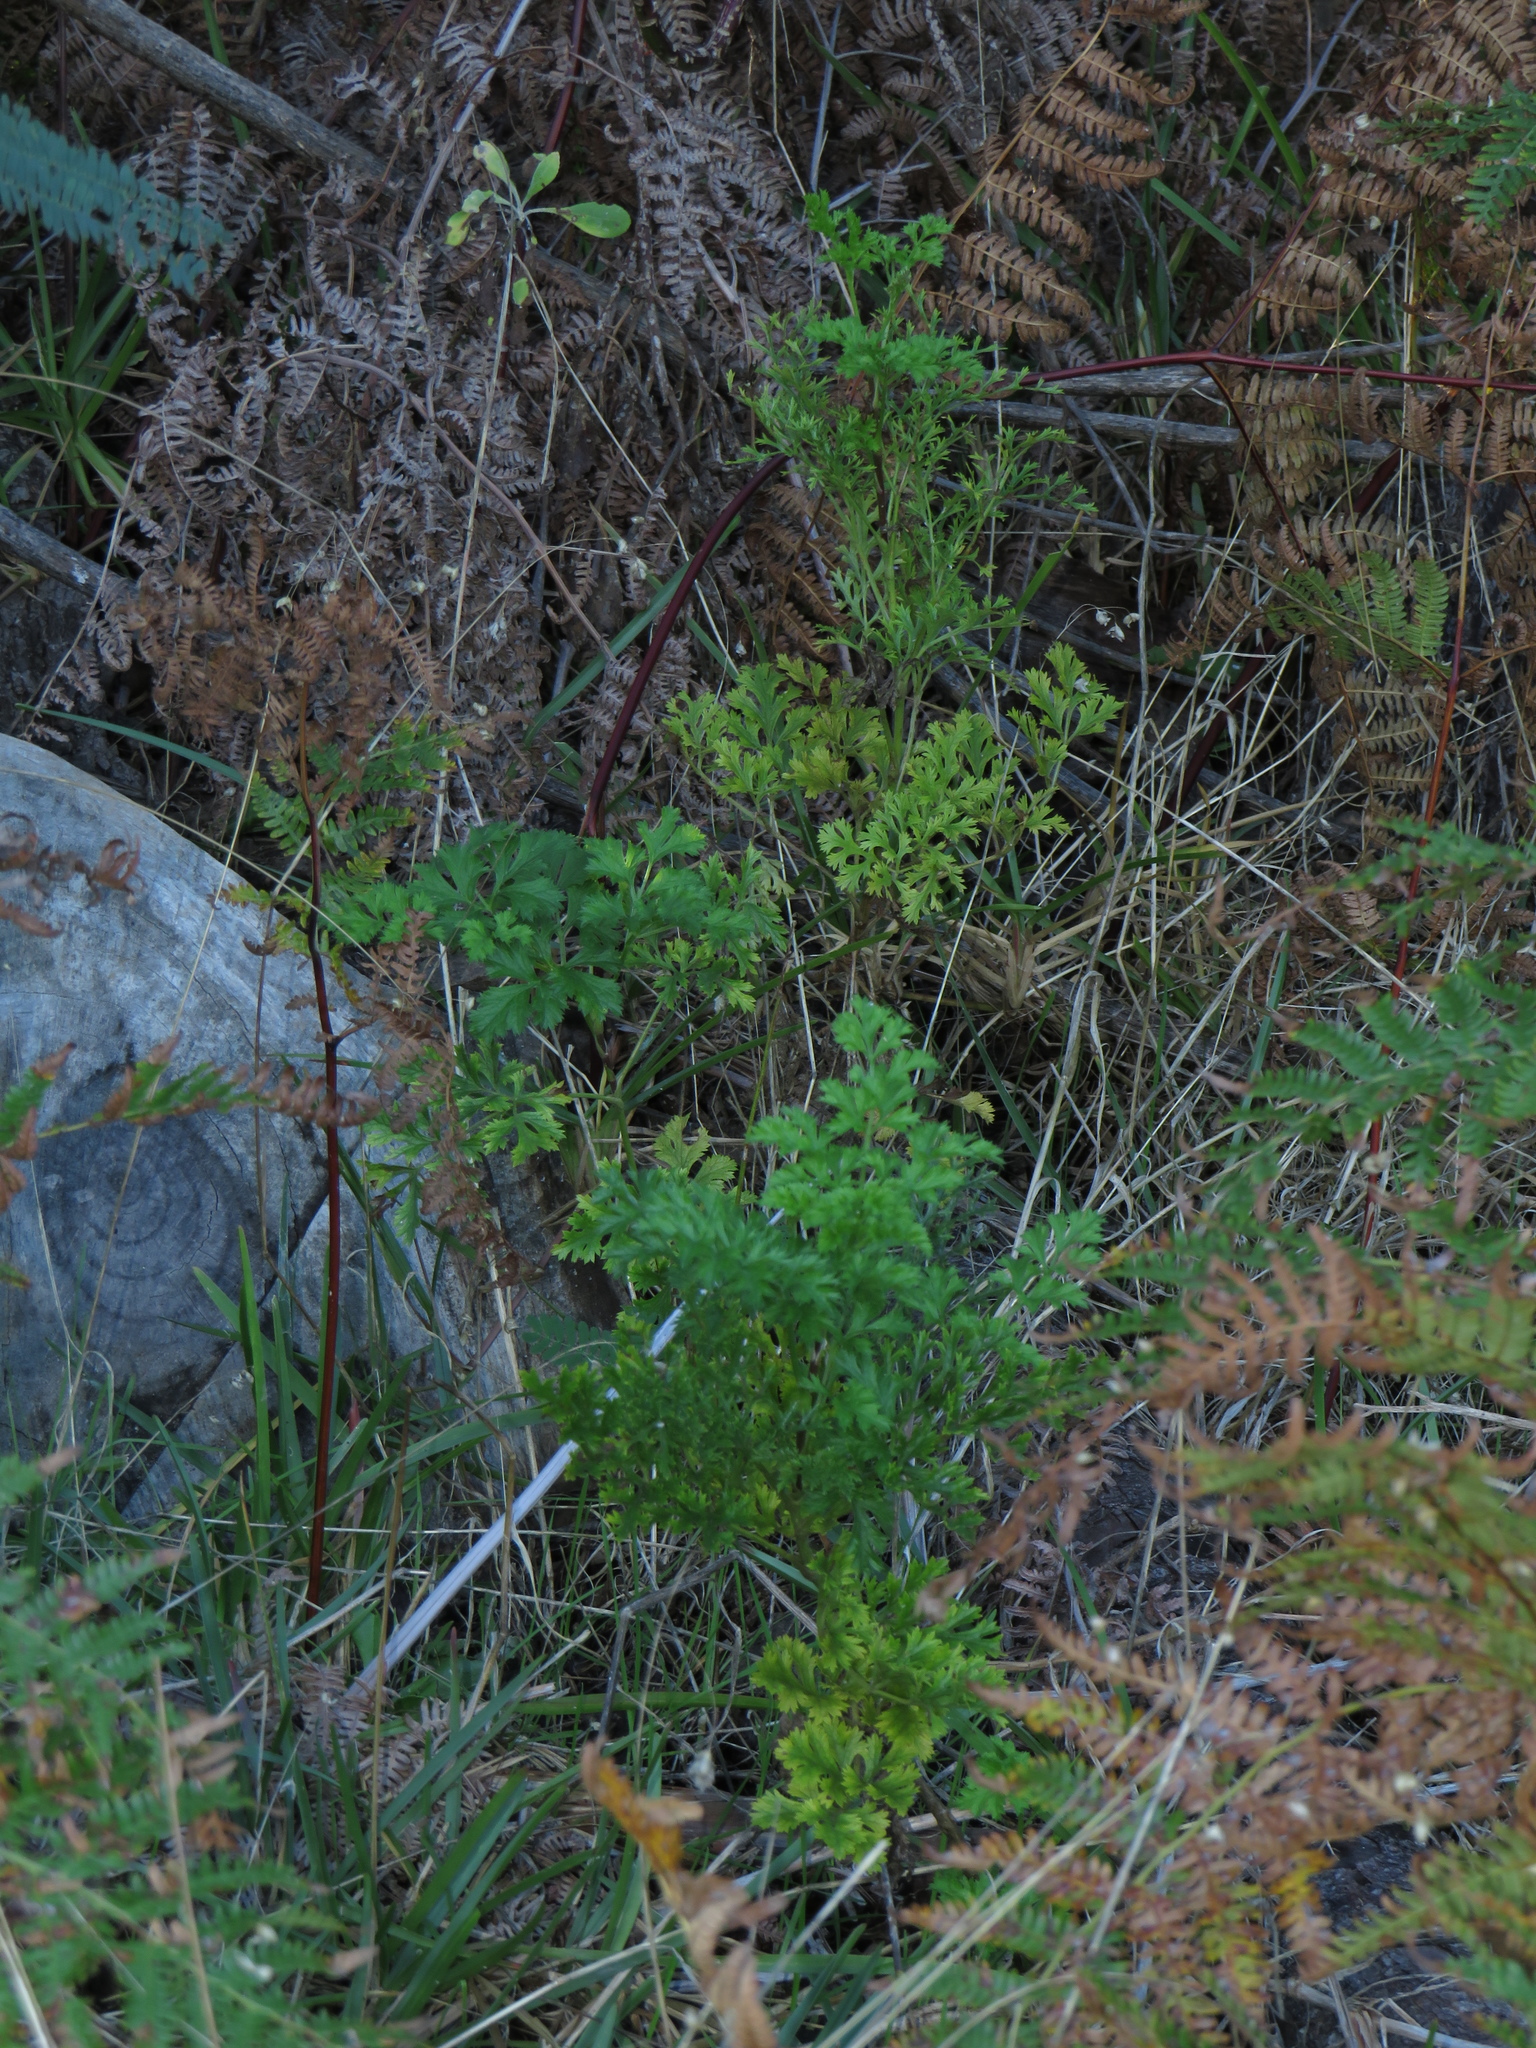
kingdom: Plantae
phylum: Tracheophyta
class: Magnoliopsida
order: Apiales
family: Apiaceae
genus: Glia
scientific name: Glia prolifera
